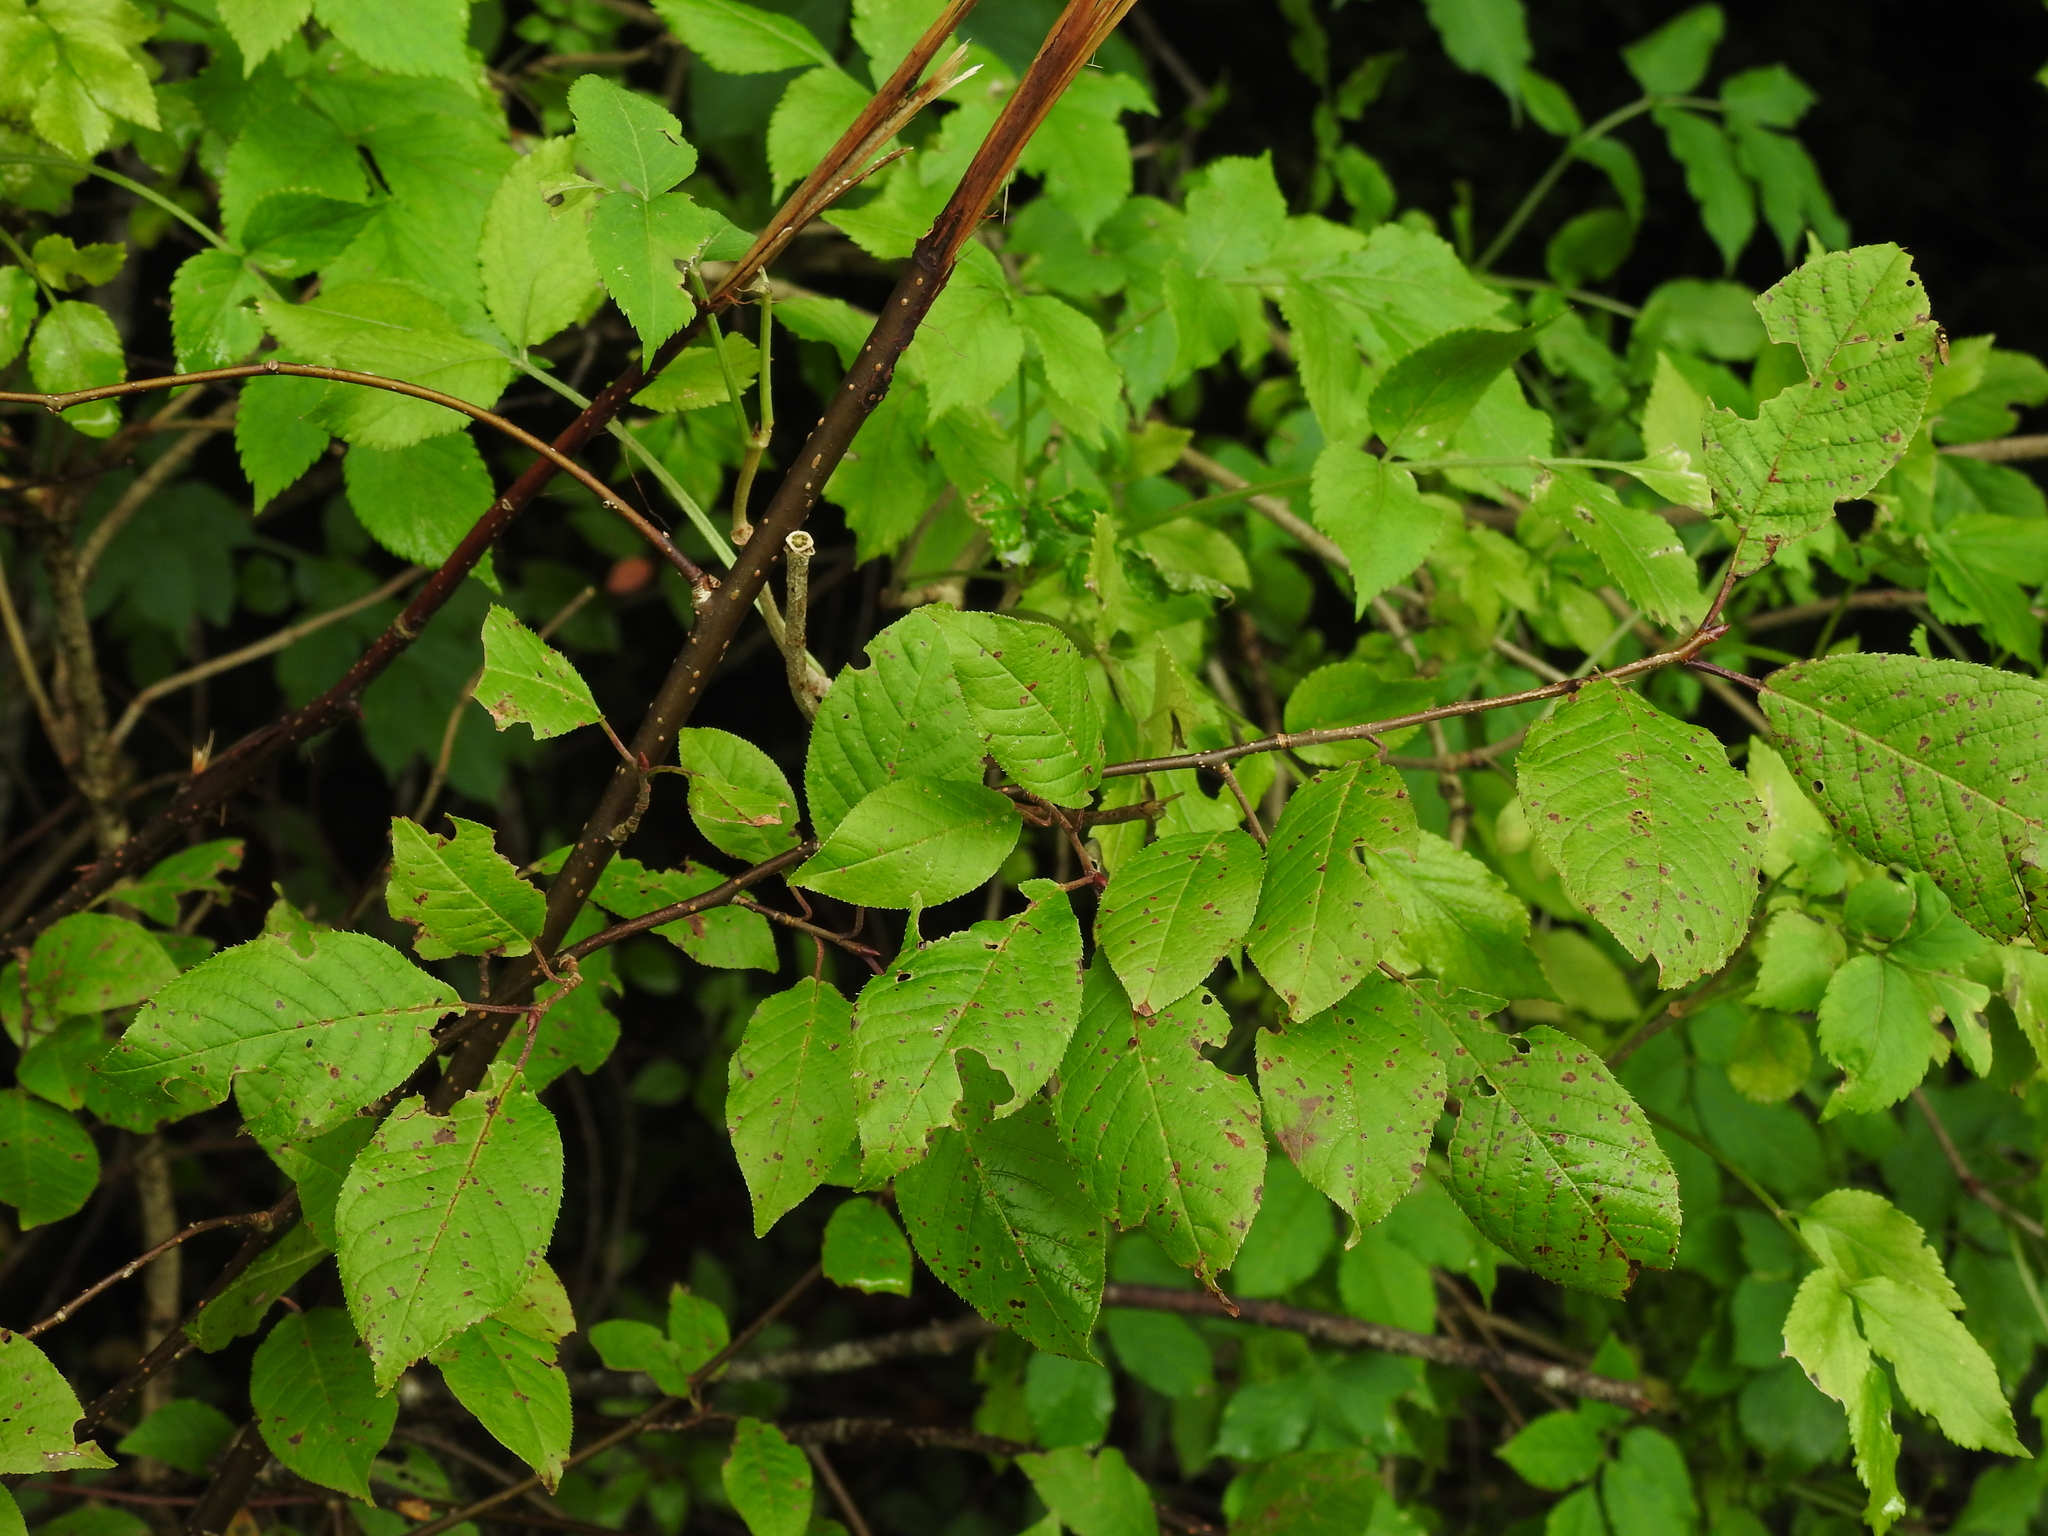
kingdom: Plantae
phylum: Tracheophyta
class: Magnoliopsida
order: Rosales
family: Rosaceae
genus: Prunus
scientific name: Prunus padus
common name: Bird cherry
